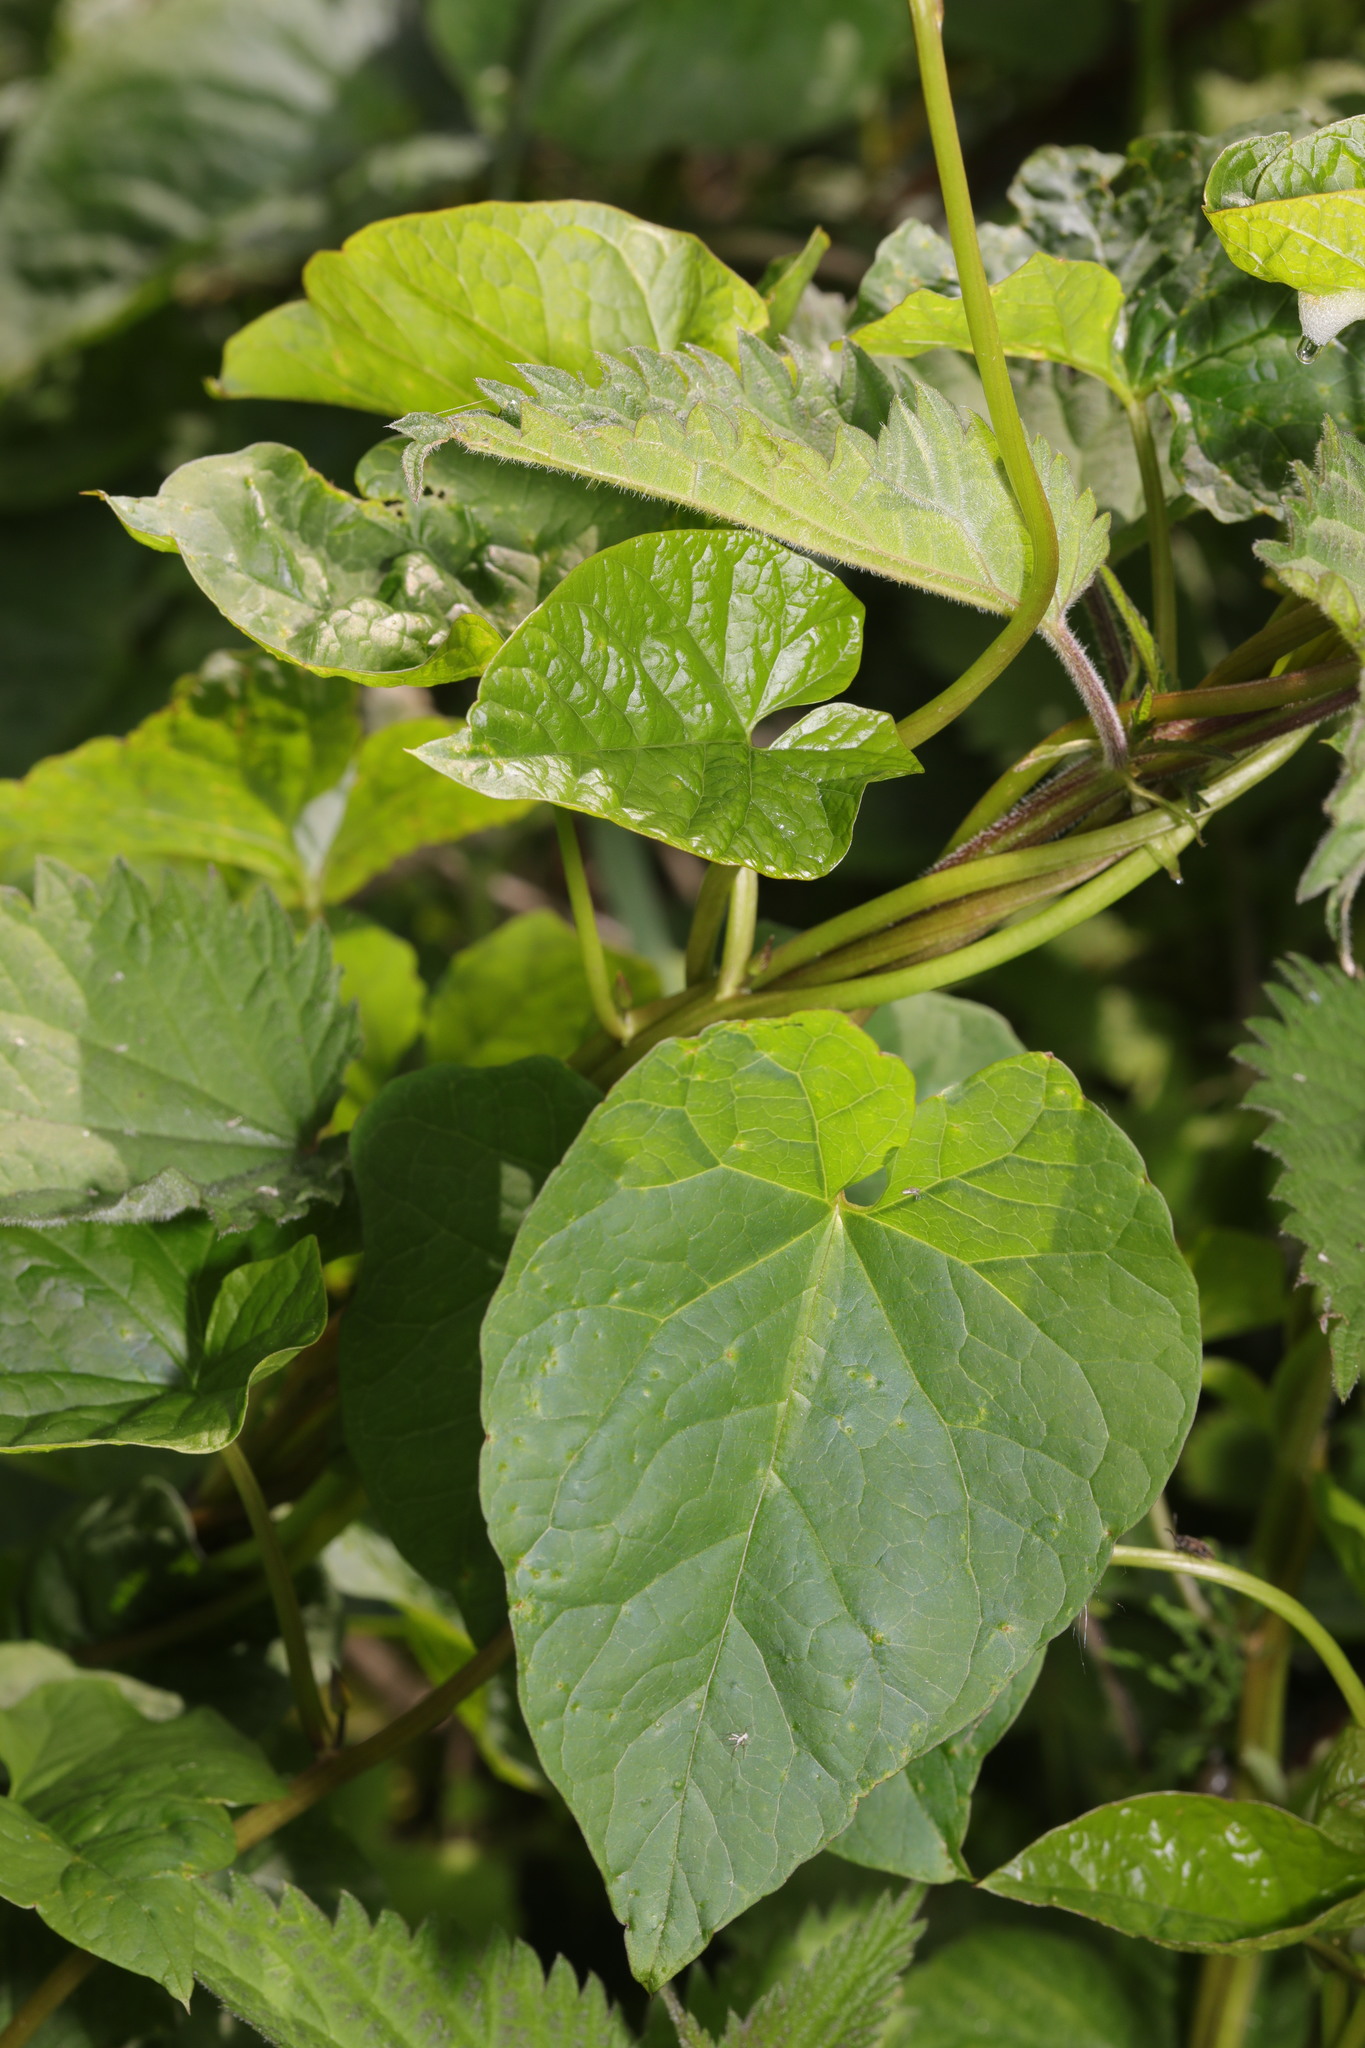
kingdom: Plantae
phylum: Tracheophyta
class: Magnoliopsida
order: Solanales
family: Convolvulaceae
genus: Calystegia
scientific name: Calystegia
